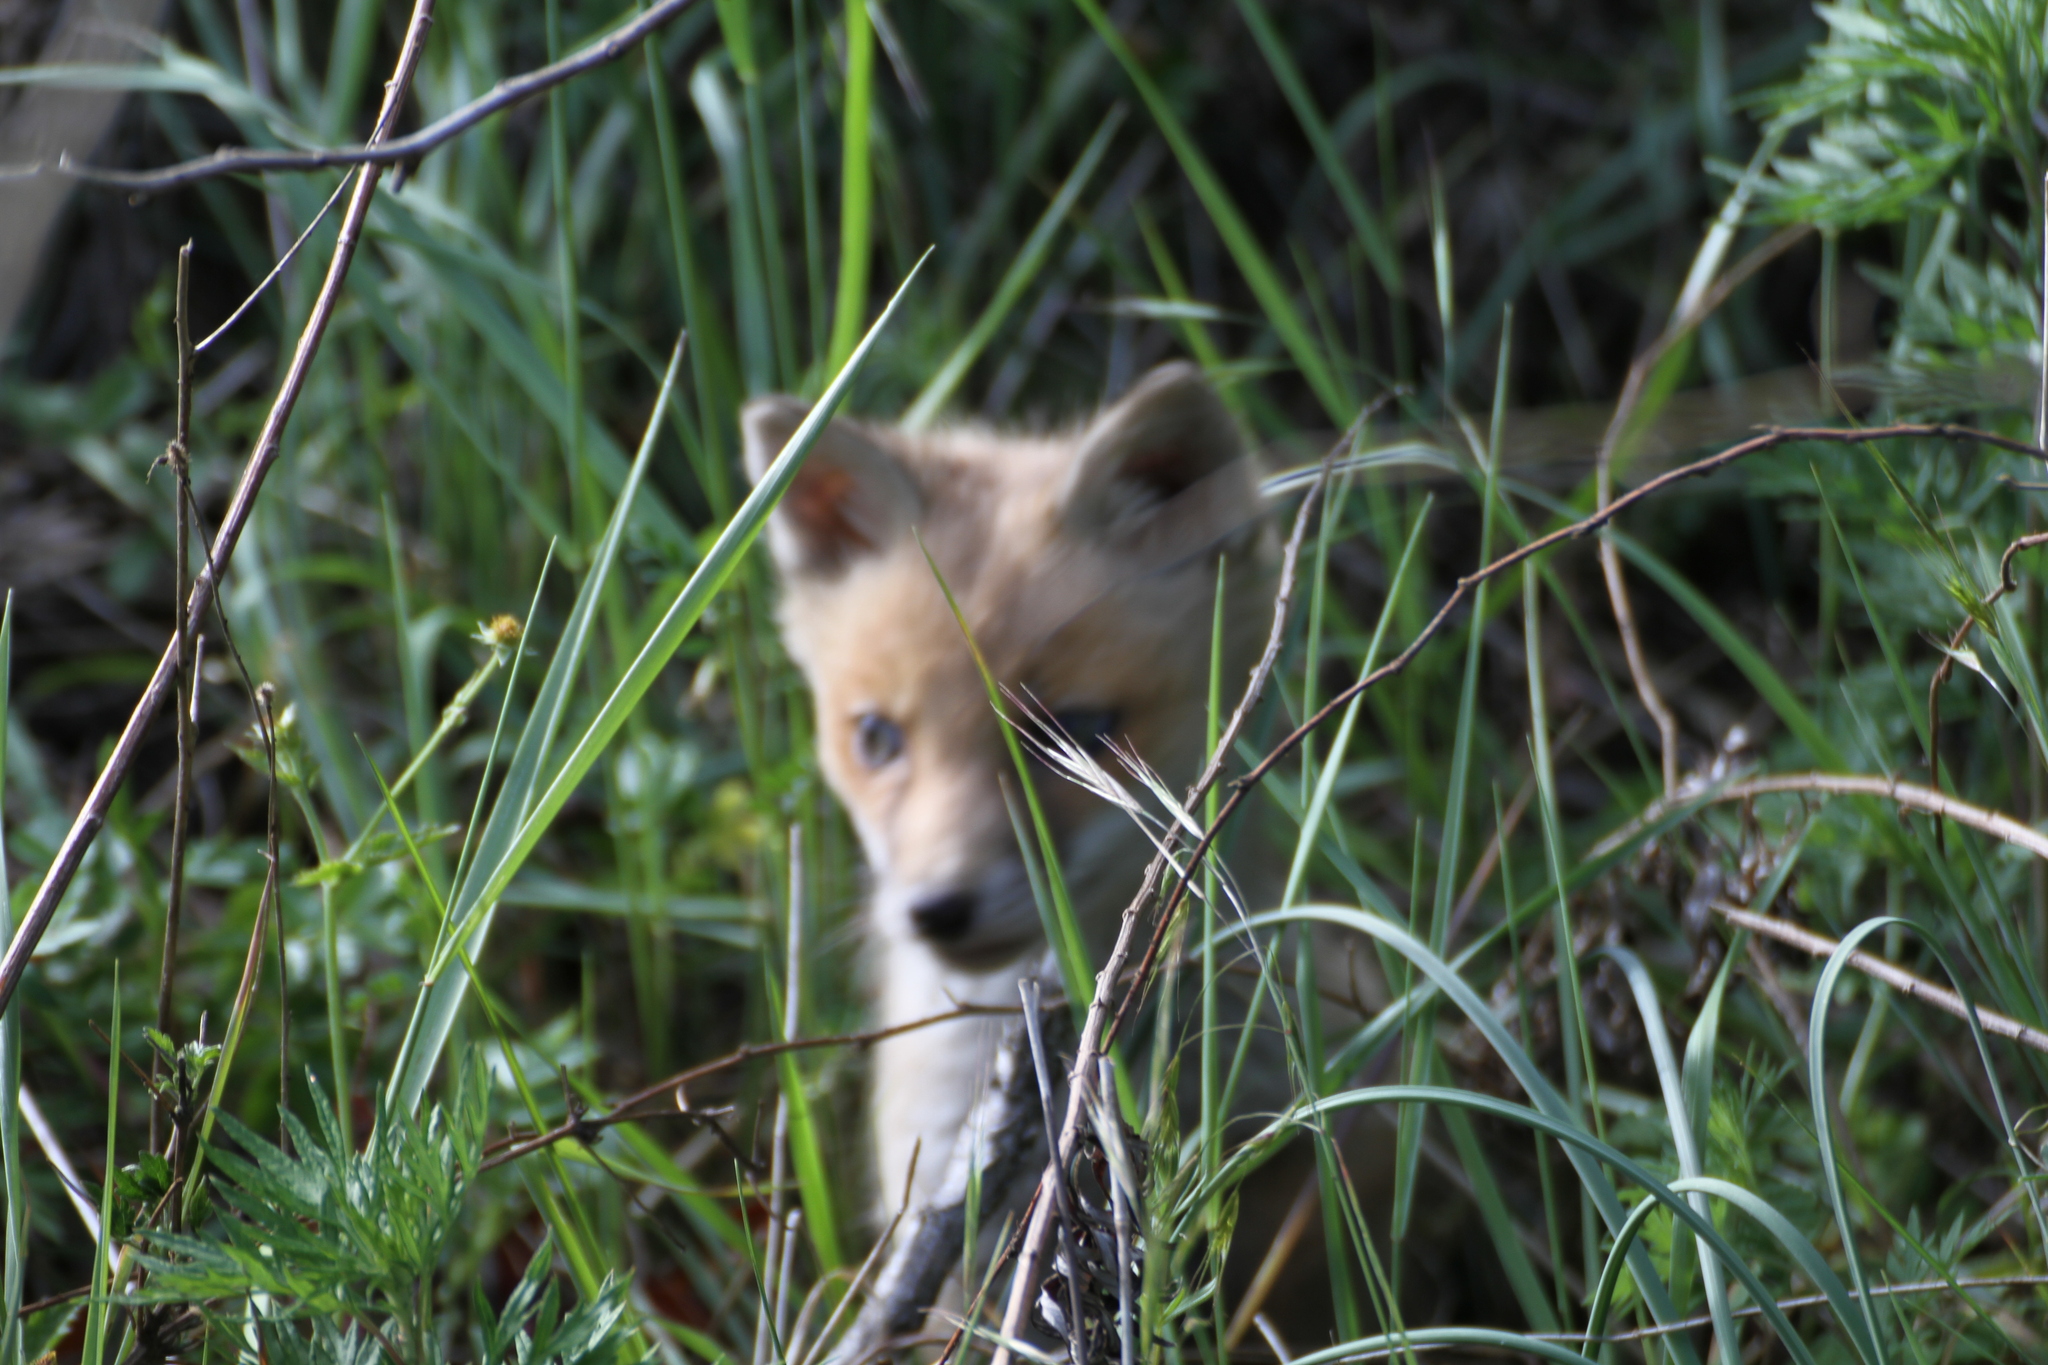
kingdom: Animalia
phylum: Chordata
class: Mammalia
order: Carnivora
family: Canidae
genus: Vulpes
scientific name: Vulpes vulpes
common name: Red fox
